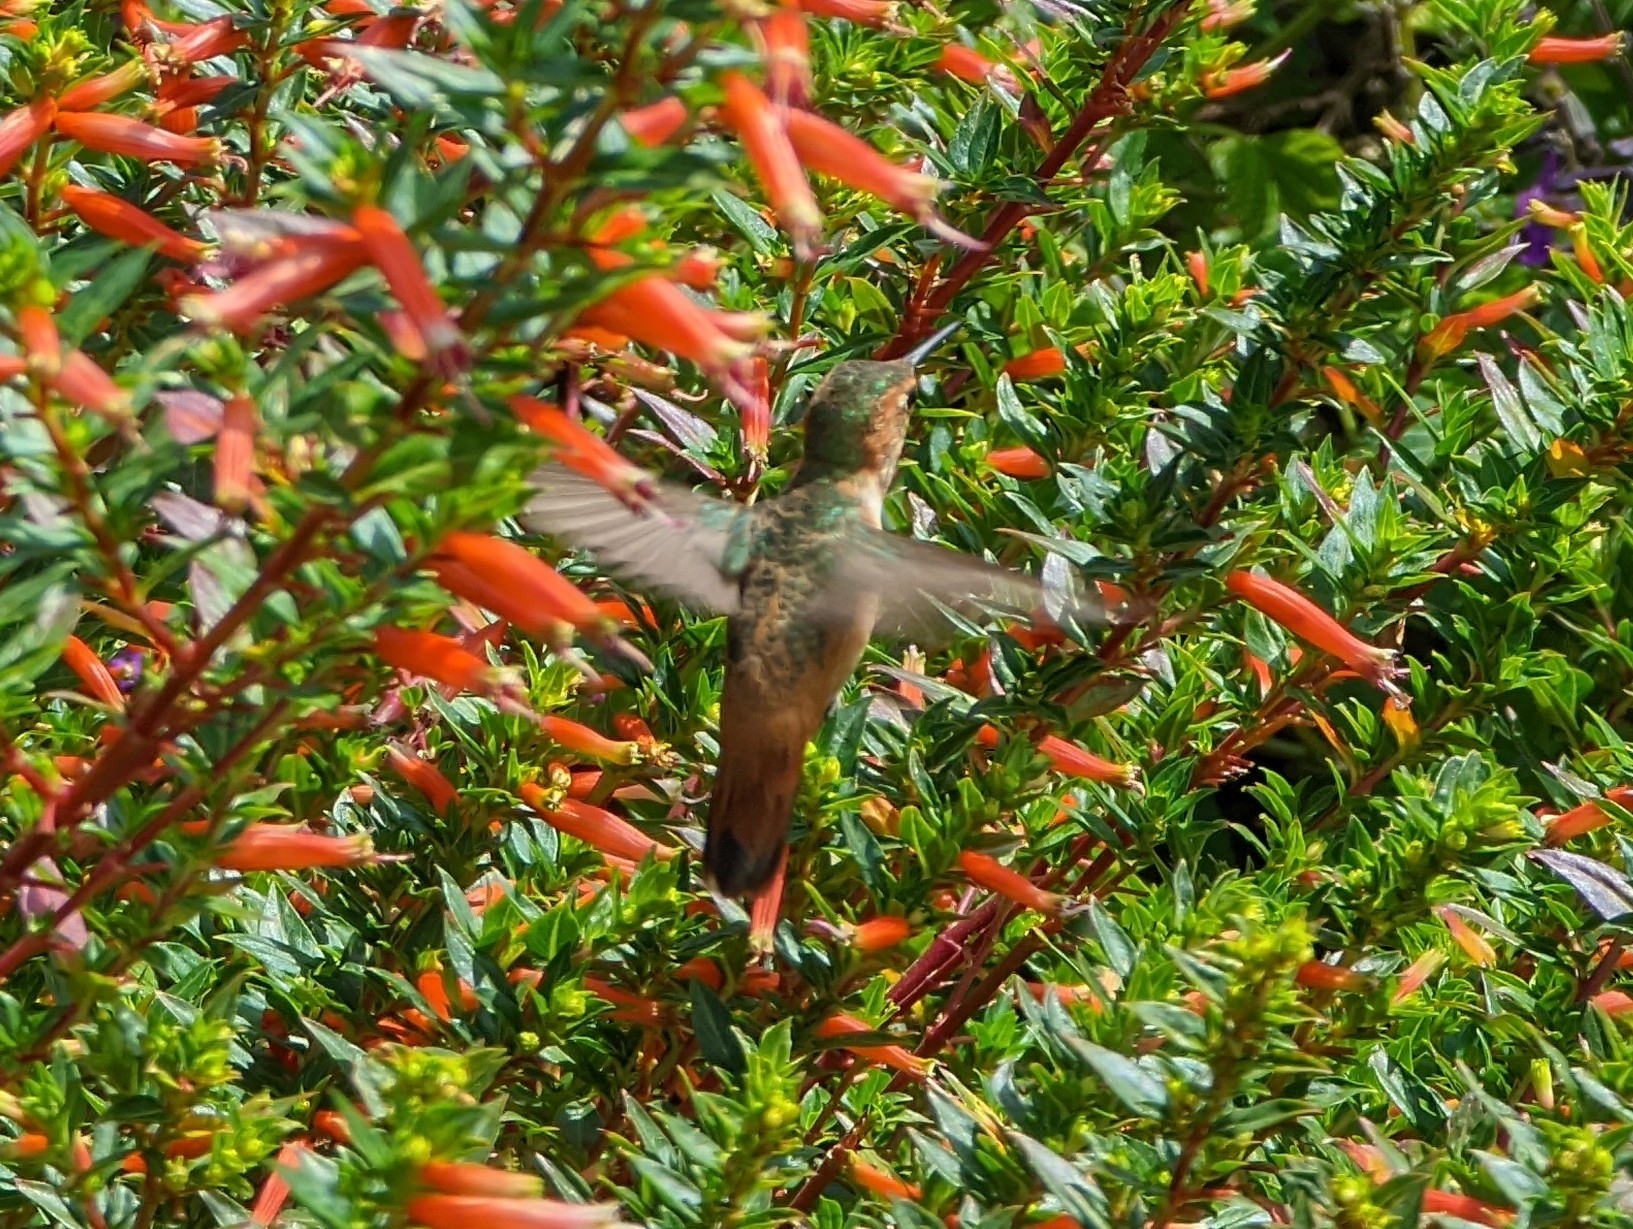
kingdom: Animalia
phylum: Chordata
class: Aves
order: Apodiformes
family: Trochilidae
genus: Selasphorus
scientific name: Selasphorus
